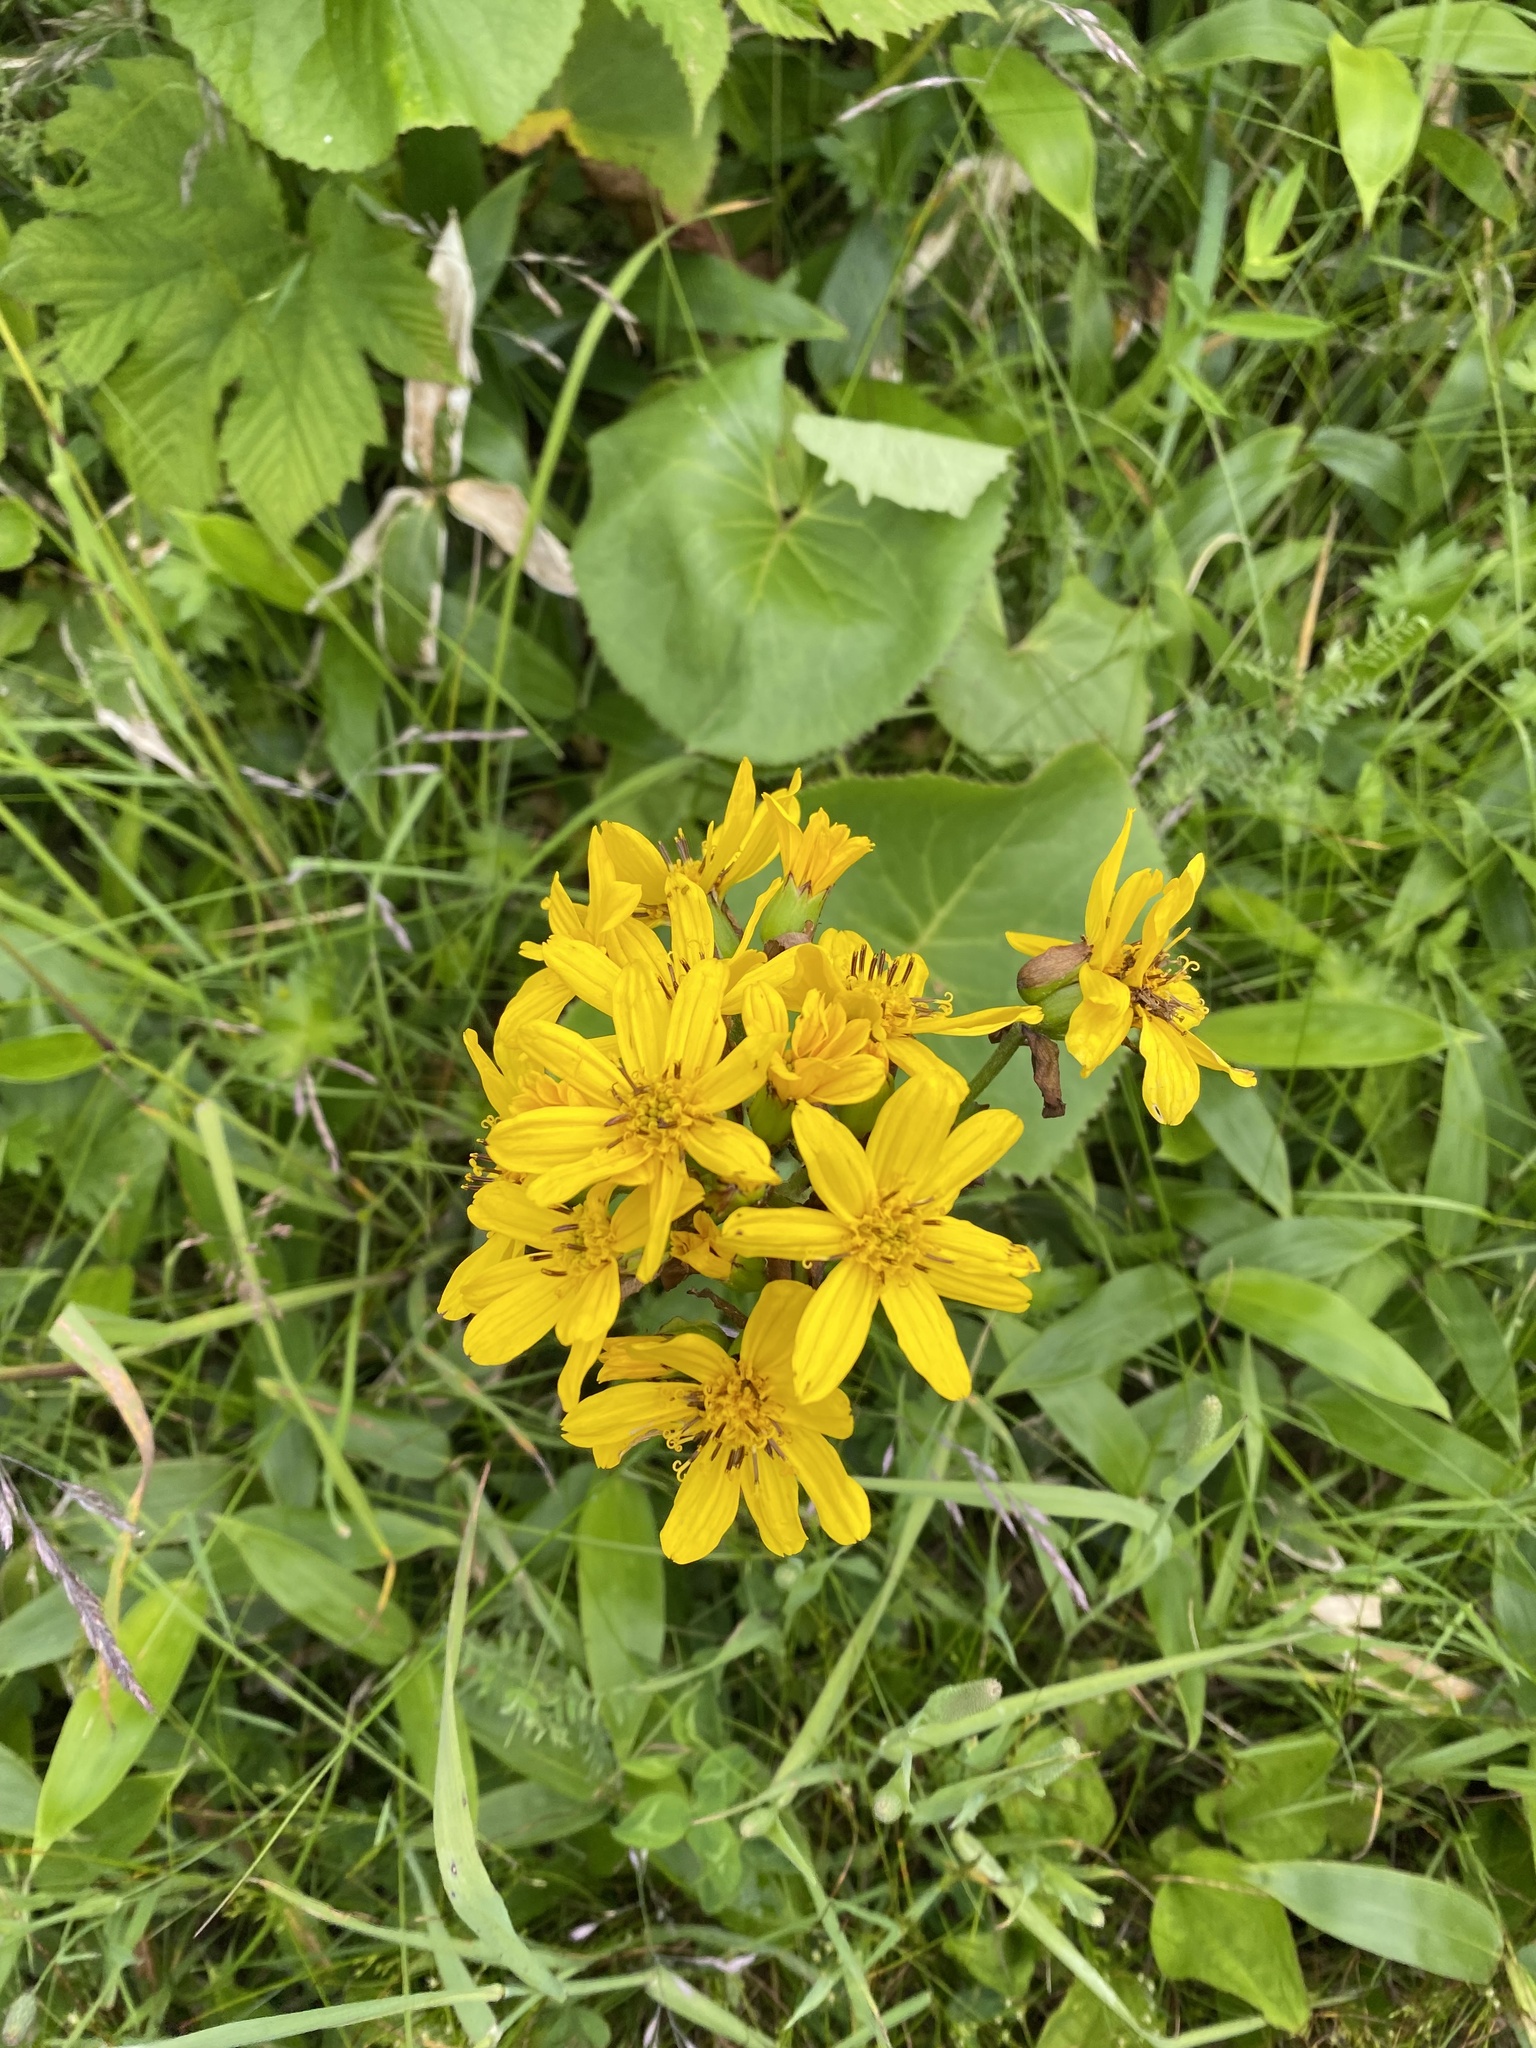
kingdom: Plantae
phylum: Tracheophyta
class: Magnoliopsida
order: Asterales
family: Asteraceae
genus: Ligularia
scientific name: Ligularia hodgsonii
